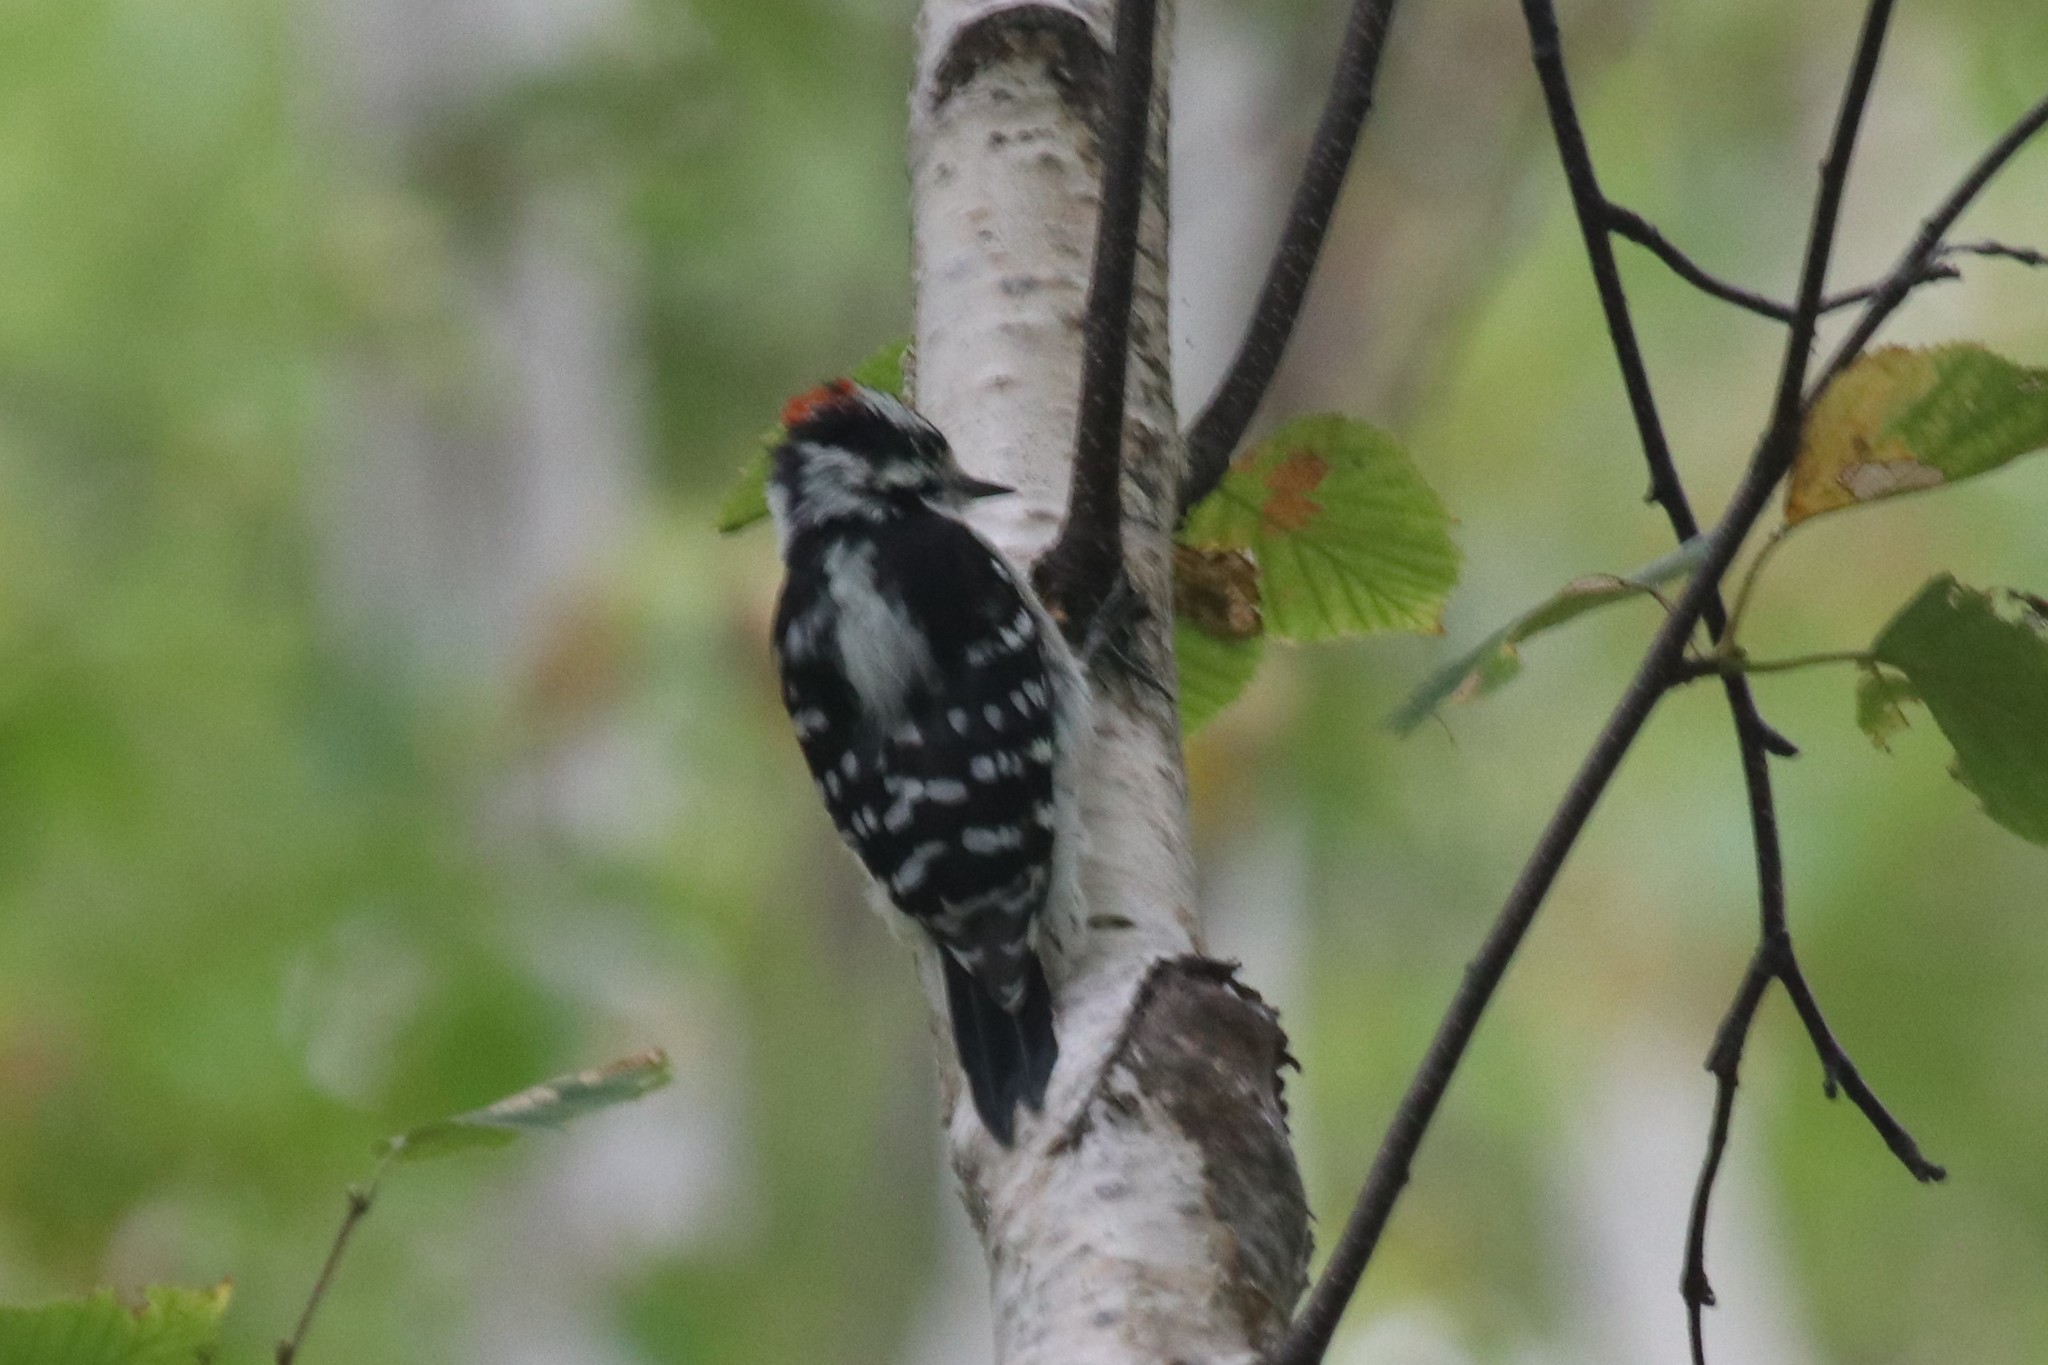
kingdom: Animalia
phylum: Chordata
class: Aves
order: Piciformes
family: Picidae
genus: Dryobates
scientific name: Dryobates pubescens
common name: Downy woodpecker
